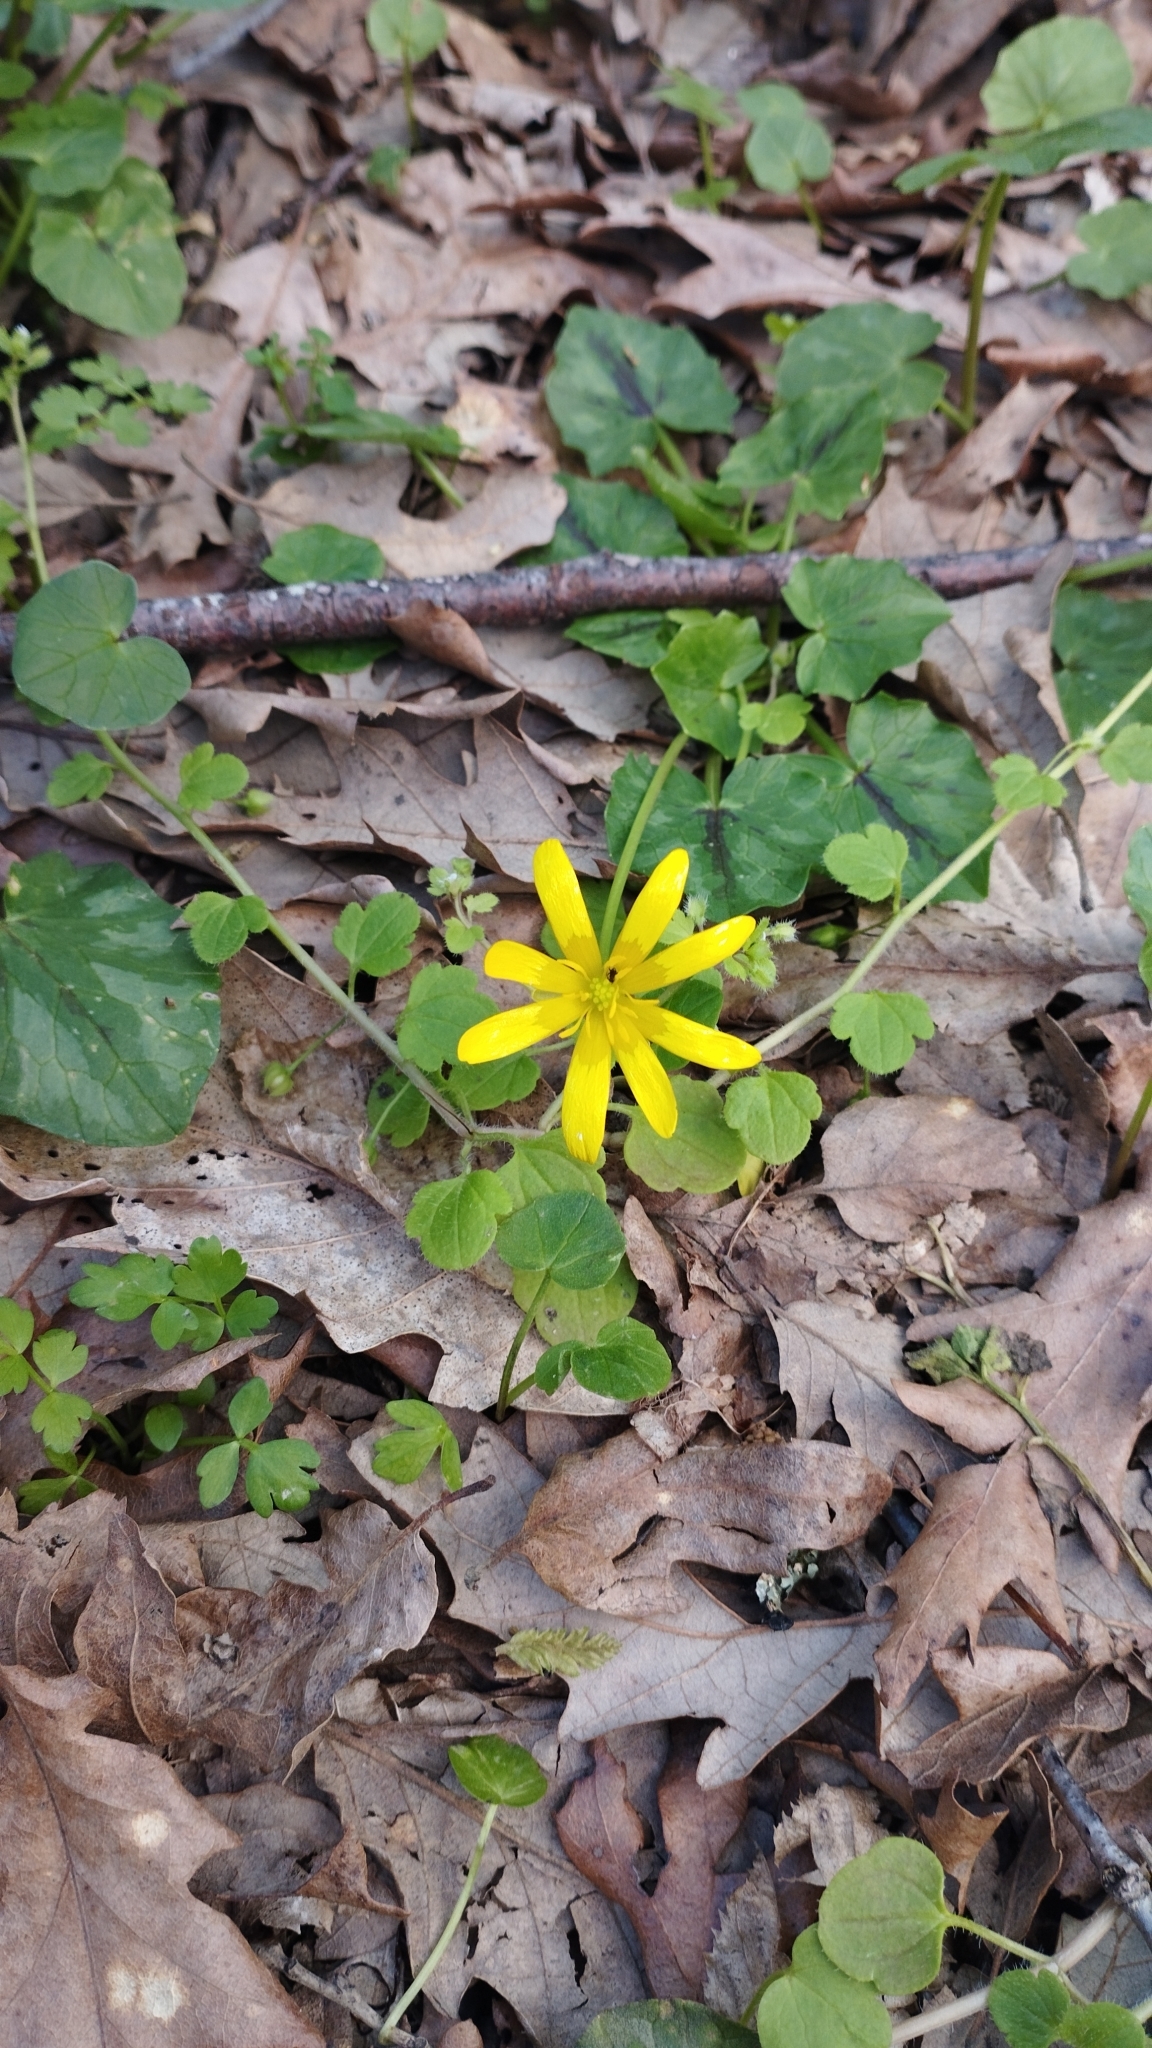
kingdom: Plantae
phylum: Tracheophyta
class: Magnoliopsida
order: Ranunculales
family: Ranunculaceae
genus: Ficaria
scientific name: Ficaria verna
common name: Lesser celandine
